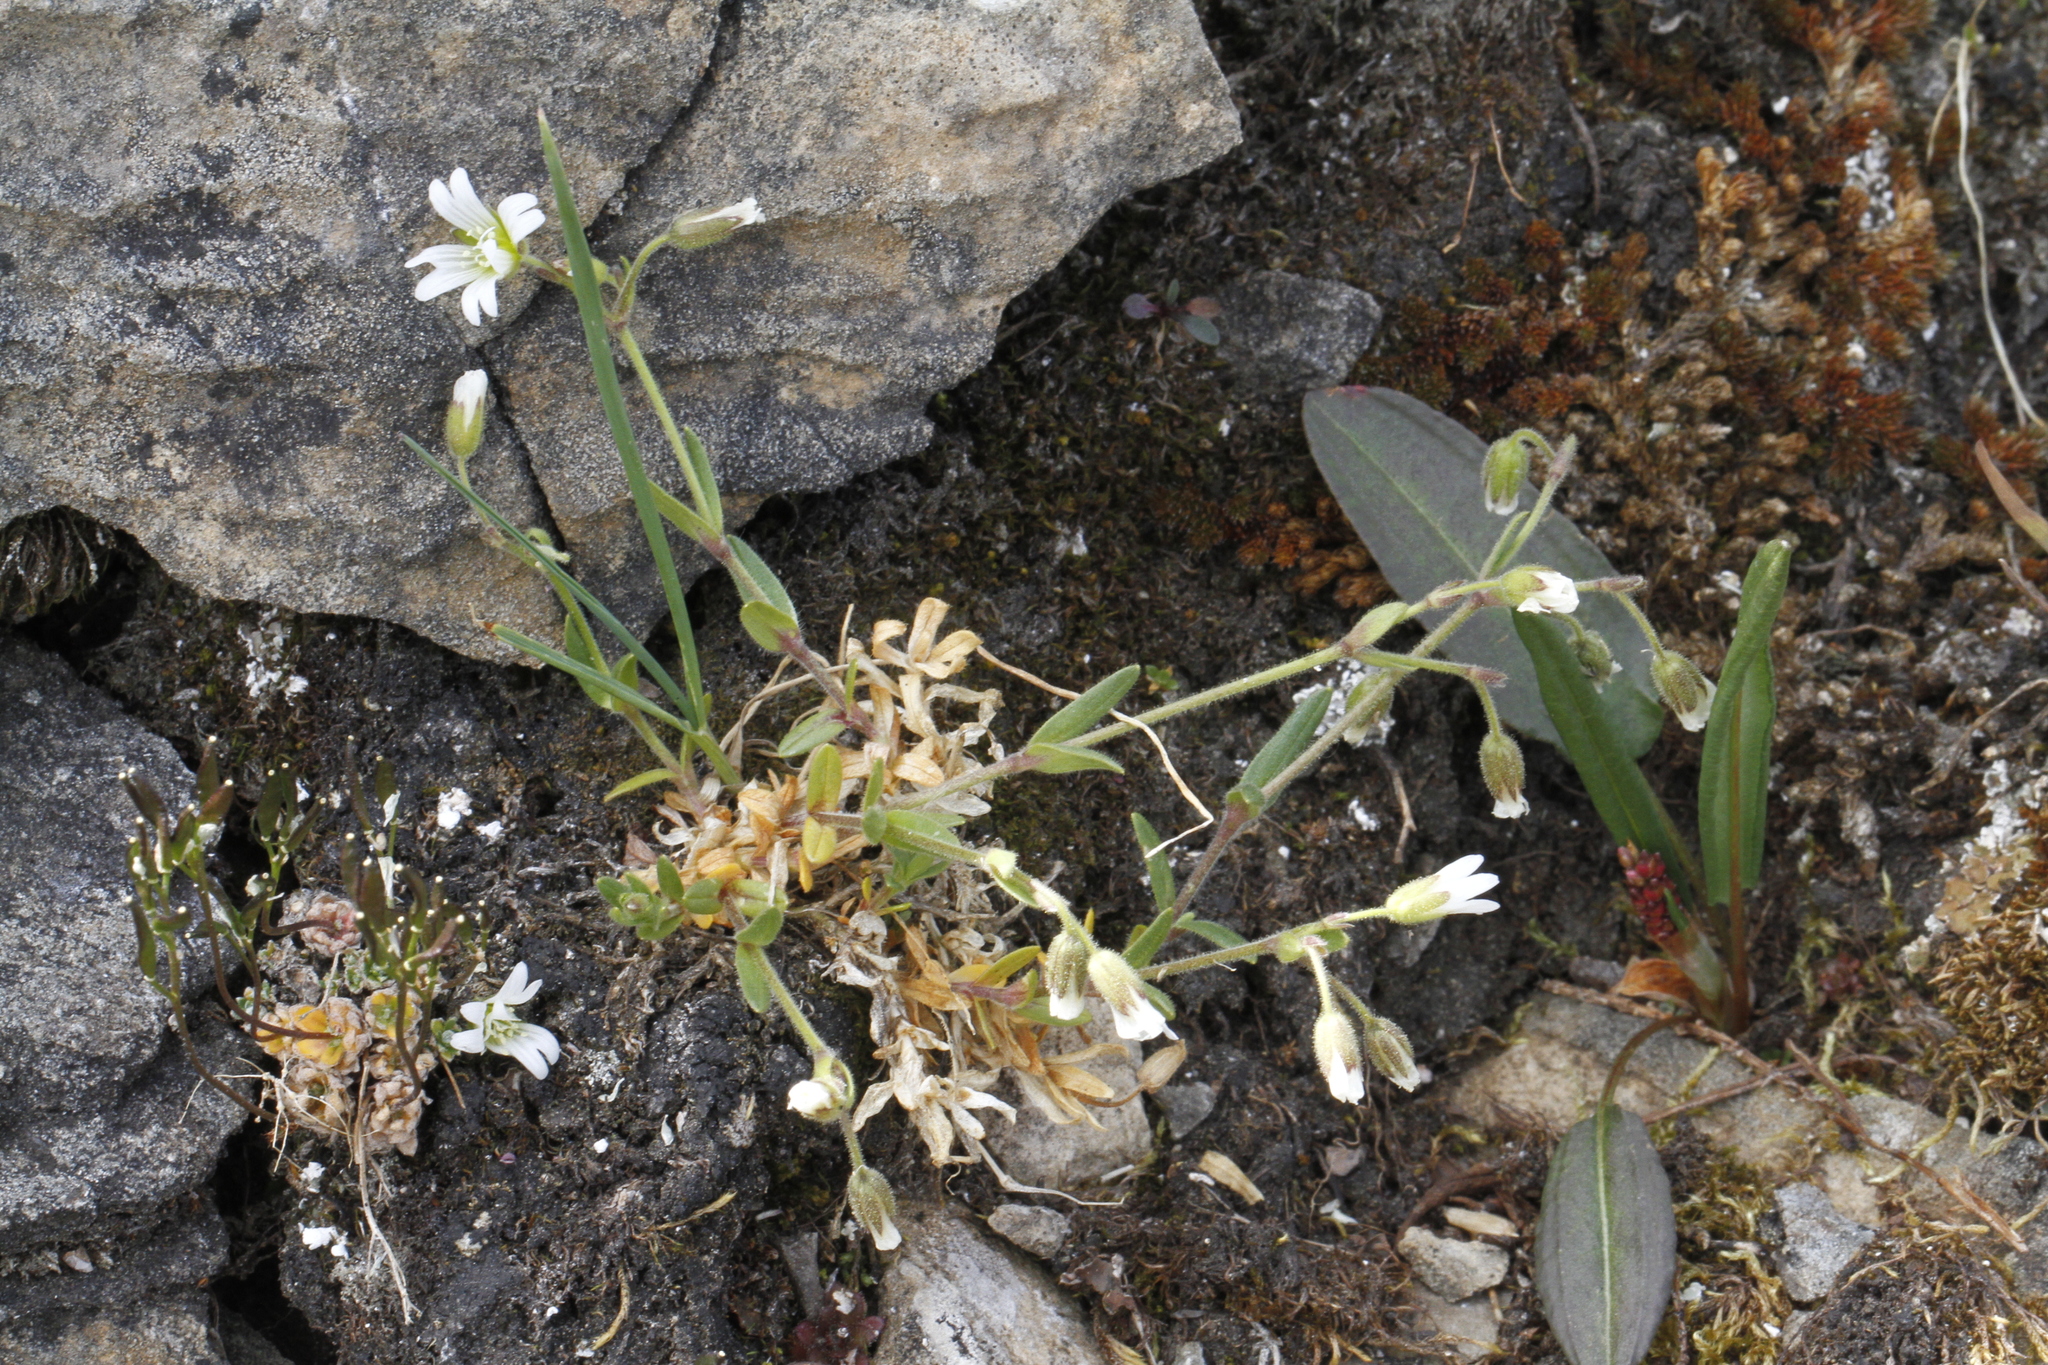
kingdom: Plantae
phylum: Tracheophyta
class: Magnoliopsida
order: Caryophyllales
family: Caryophyllaceae
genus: Cerastium
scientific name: Cerastium arvense
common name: Field mouse-ear
